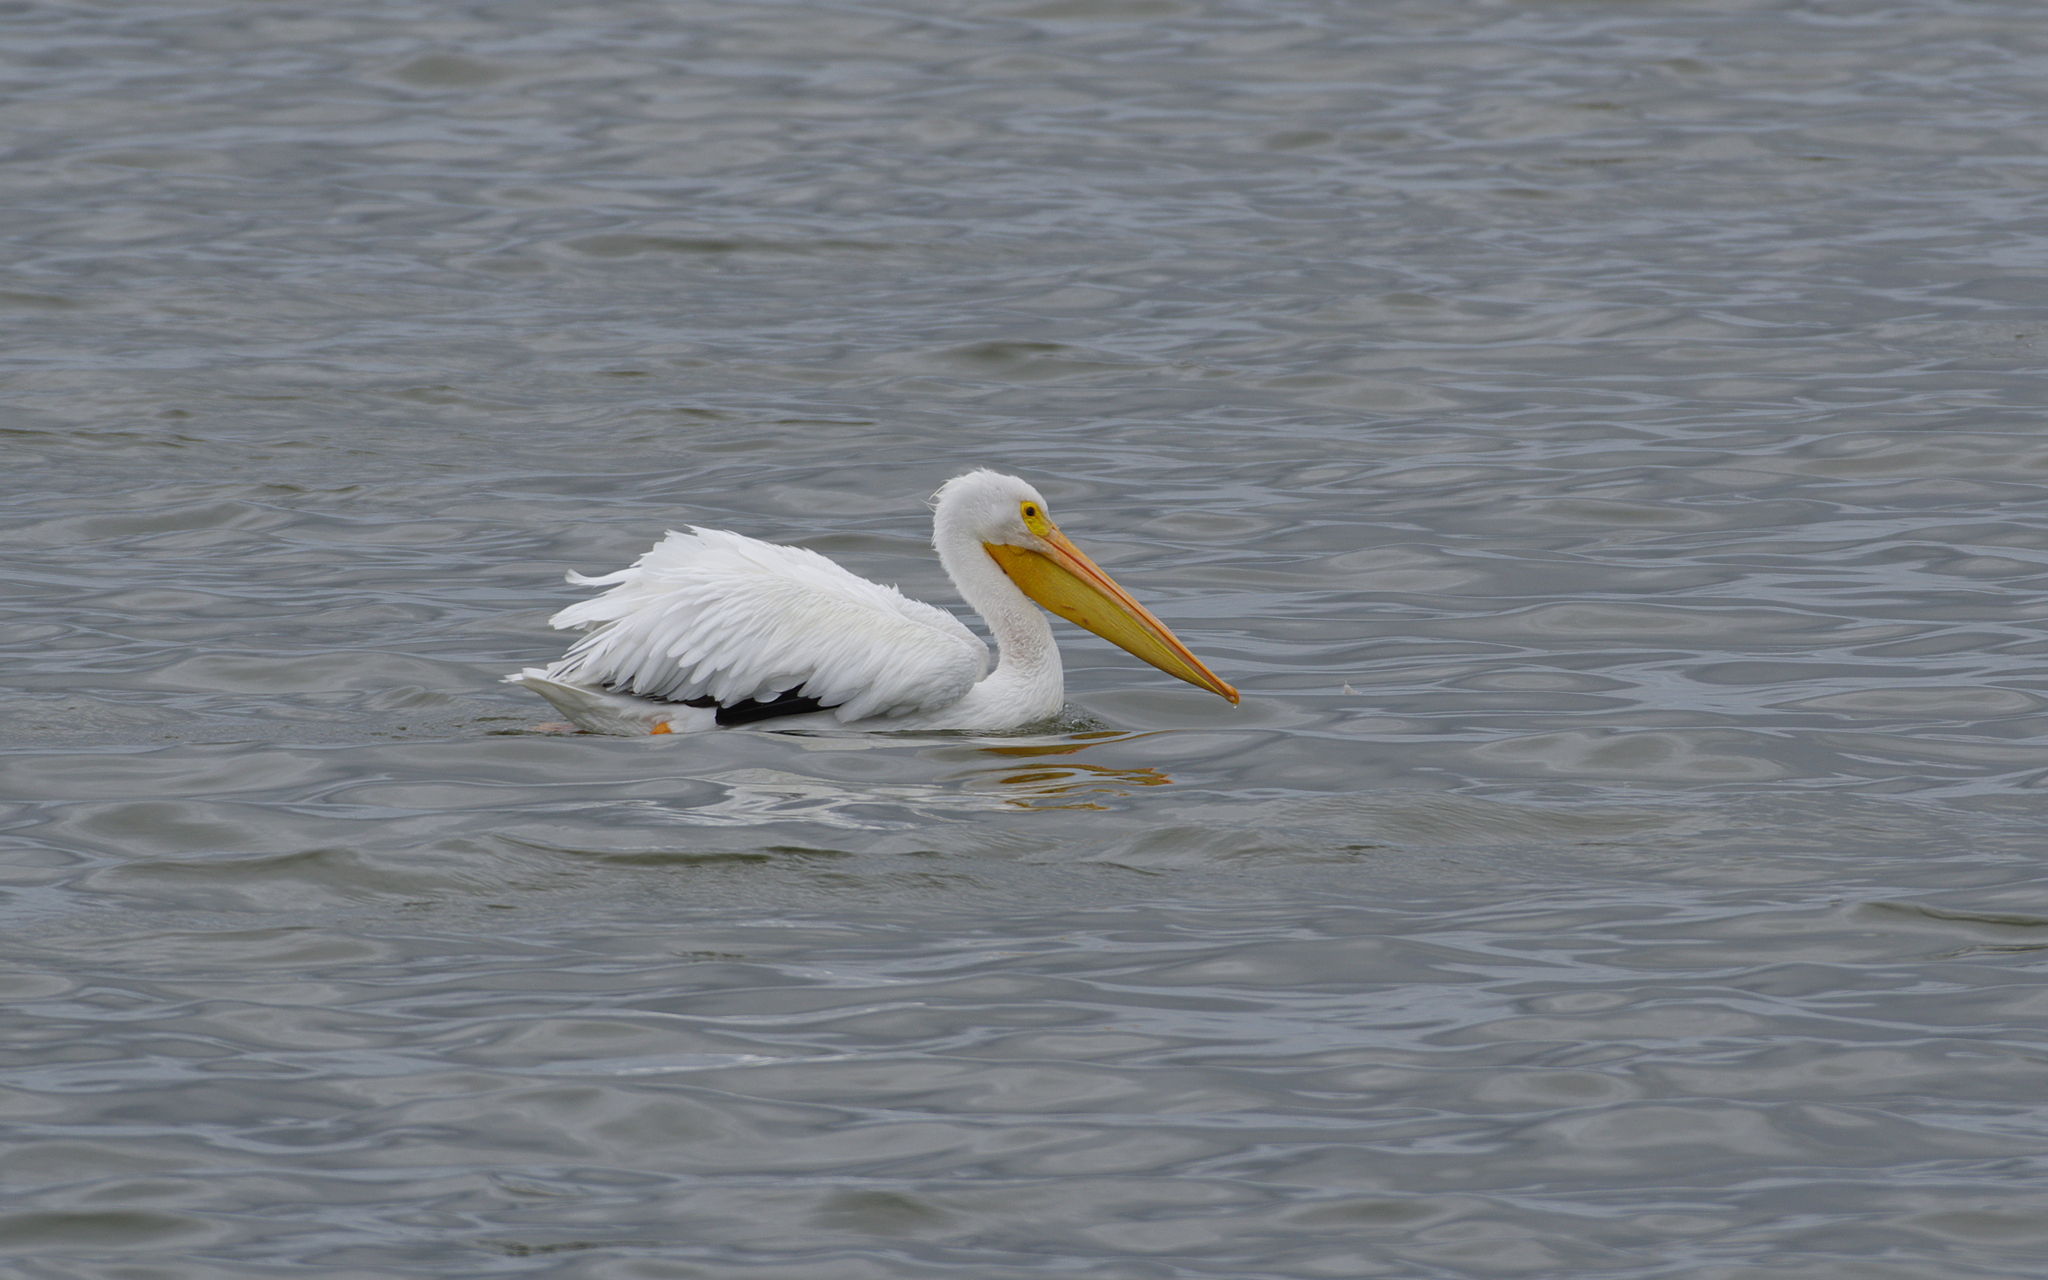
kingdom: Animalia
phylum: Chordata
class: Aves
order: Pelecaniformes
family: Pelecanidae
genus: Pelecanus
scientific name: Pelecanus erythrorhynchos
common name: American white pelican
